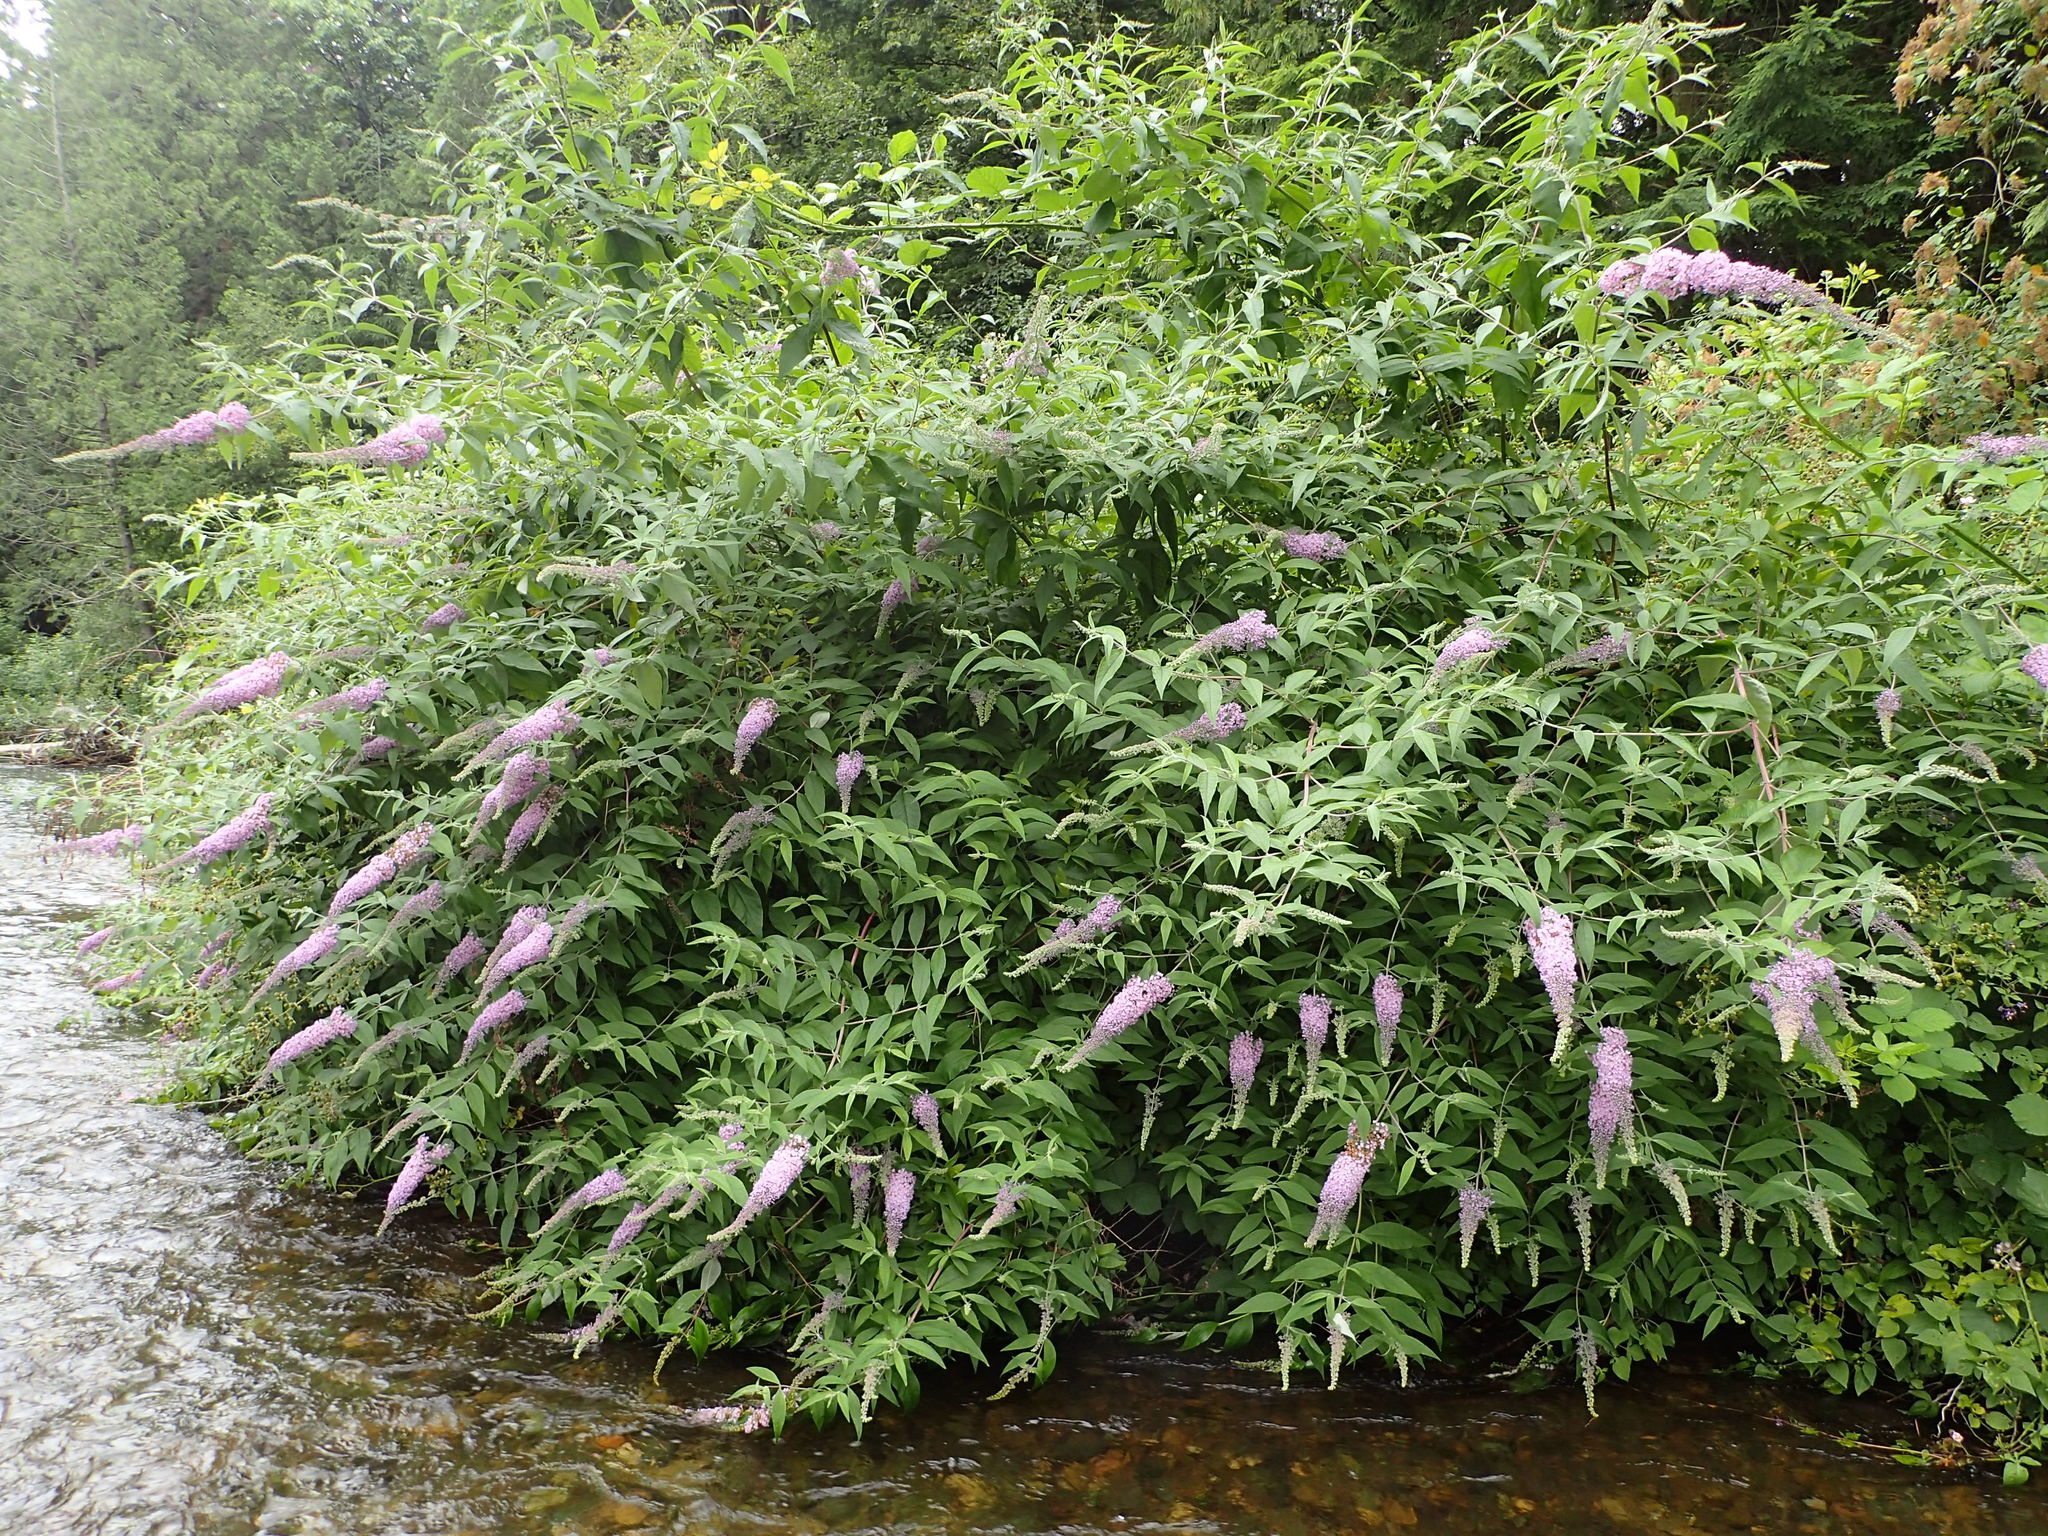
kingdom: Plantae
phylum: Tracheophyta
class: Magnoliopsida
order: Lamiales
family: Scrophulariaceae
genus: Buddleja
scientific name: Buddleja davidii
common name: Butterfly-bush
